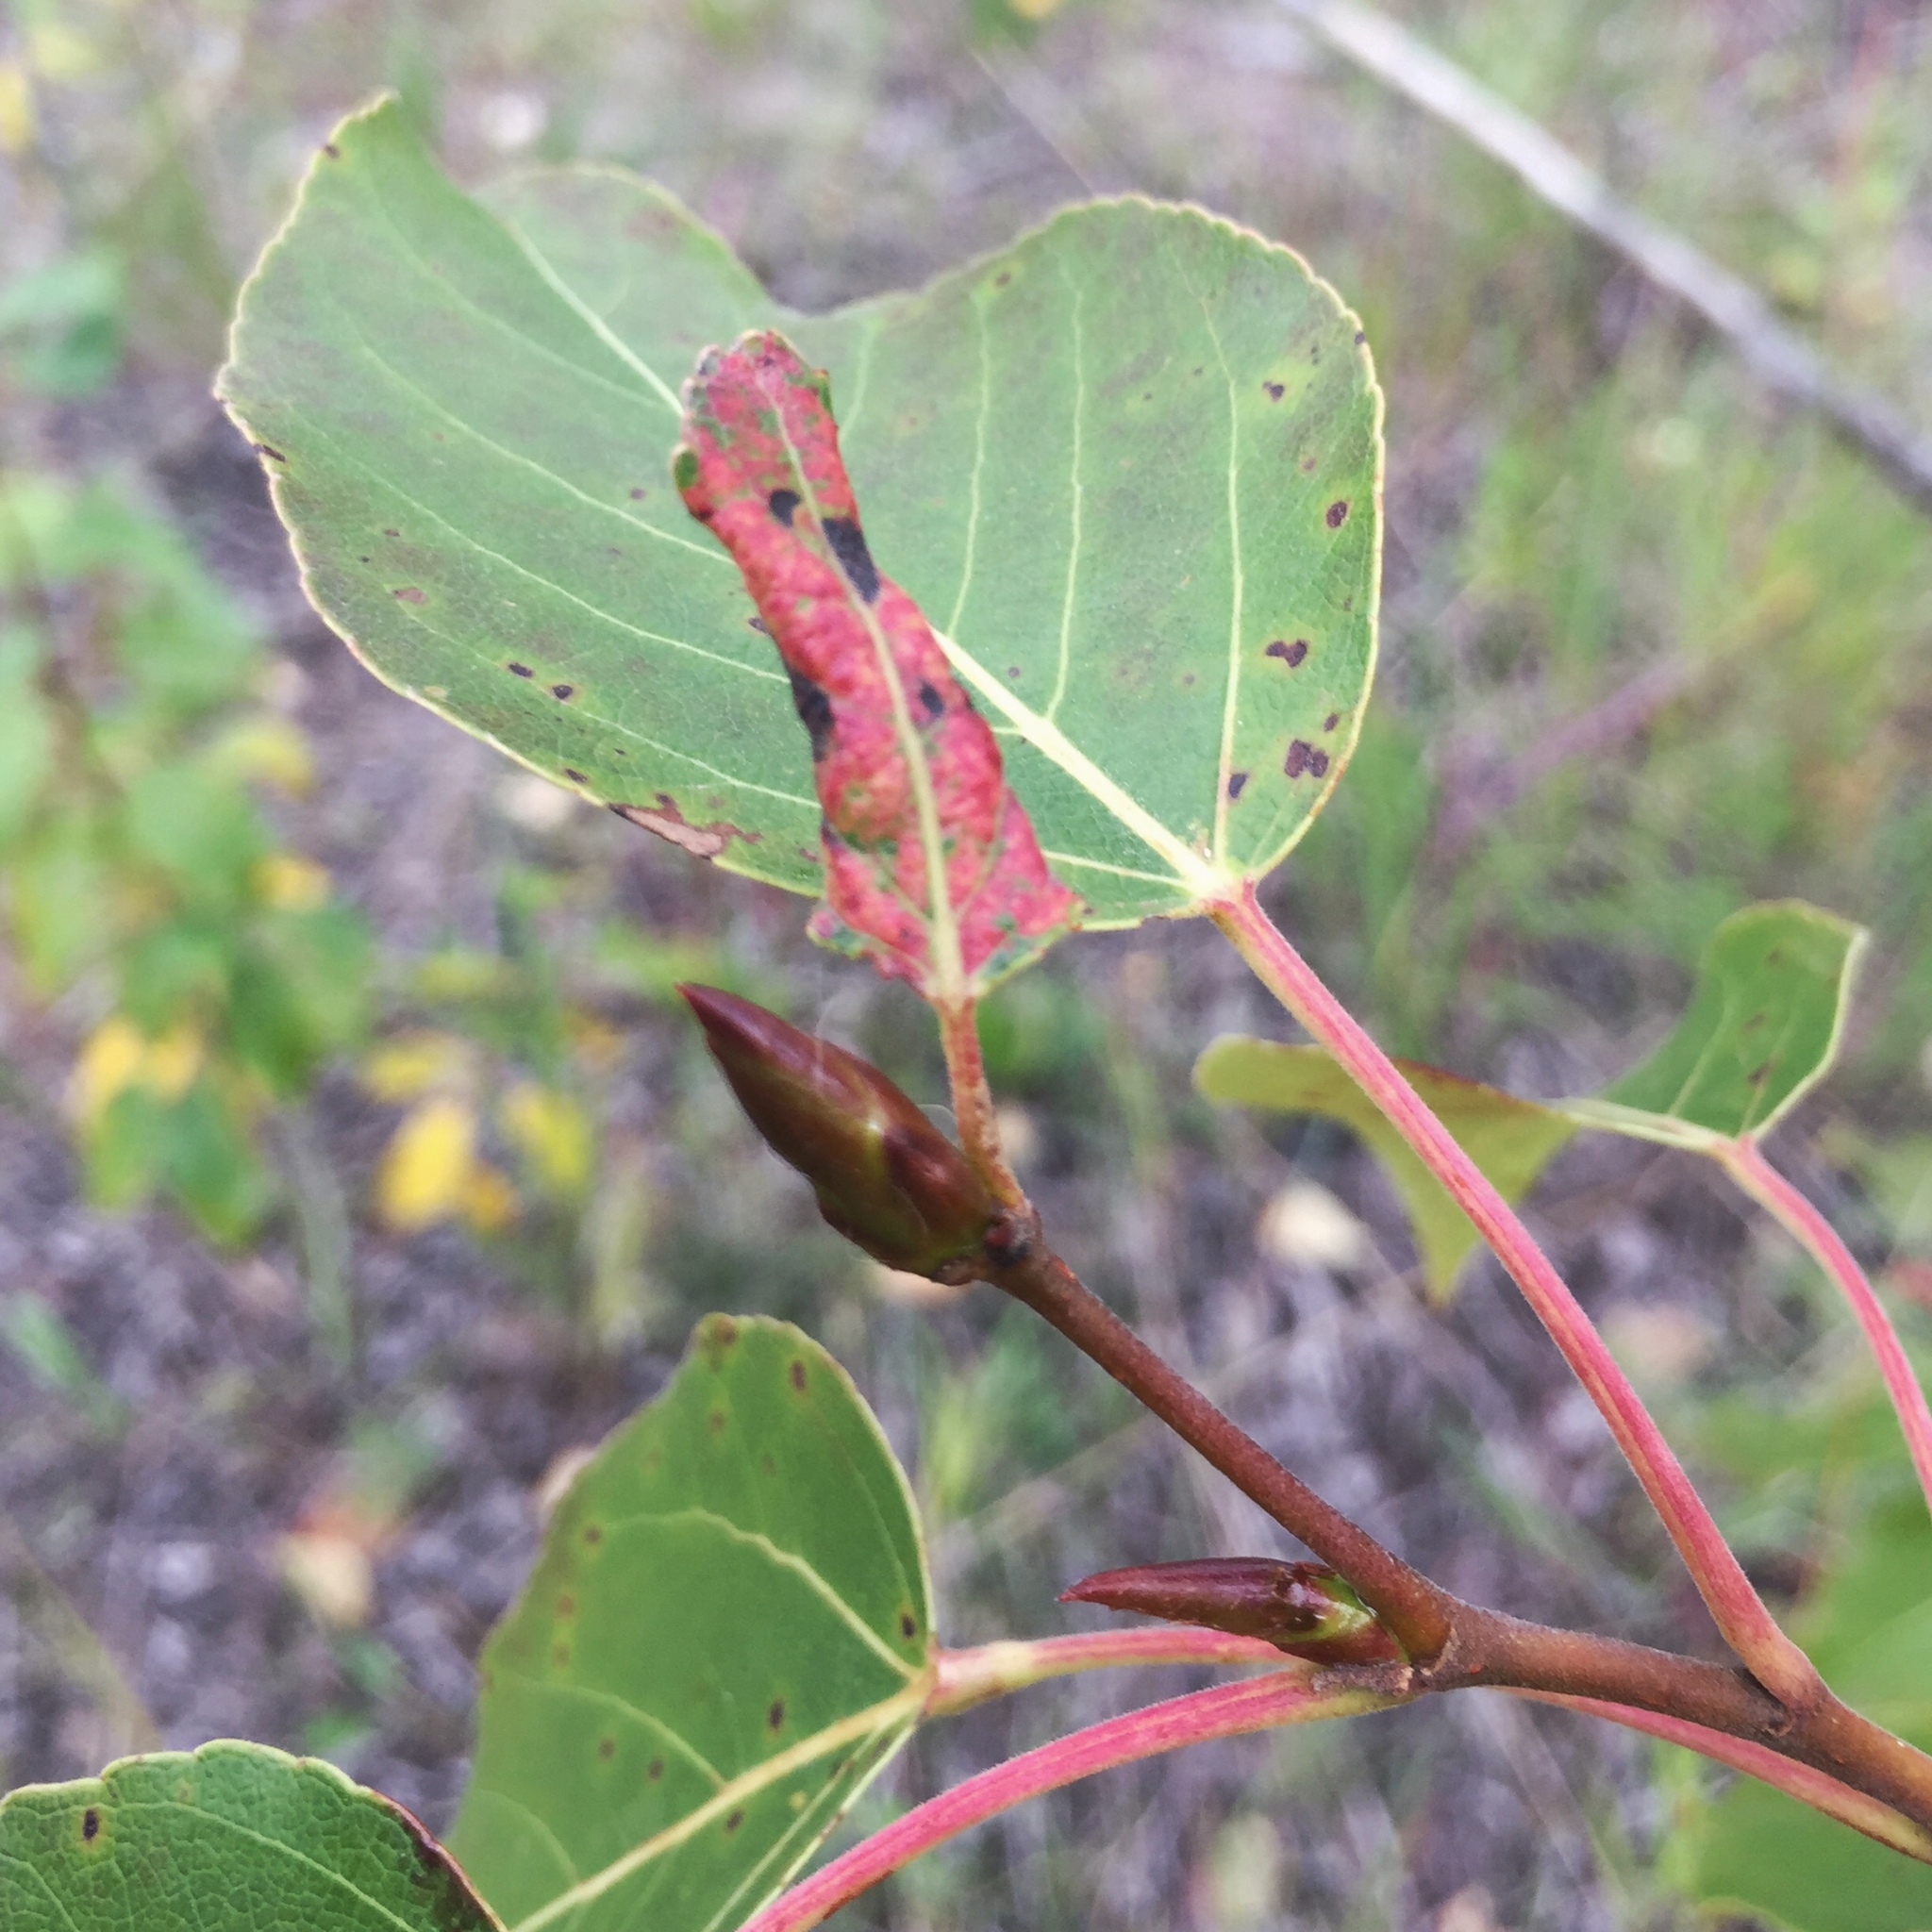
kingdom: Plantae
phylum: Tracheophyta
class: Magnoliopsida
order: Malpighiales
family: Salicaceae
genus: Populus
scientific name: Populus balsamifera
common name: Balsam poplar
